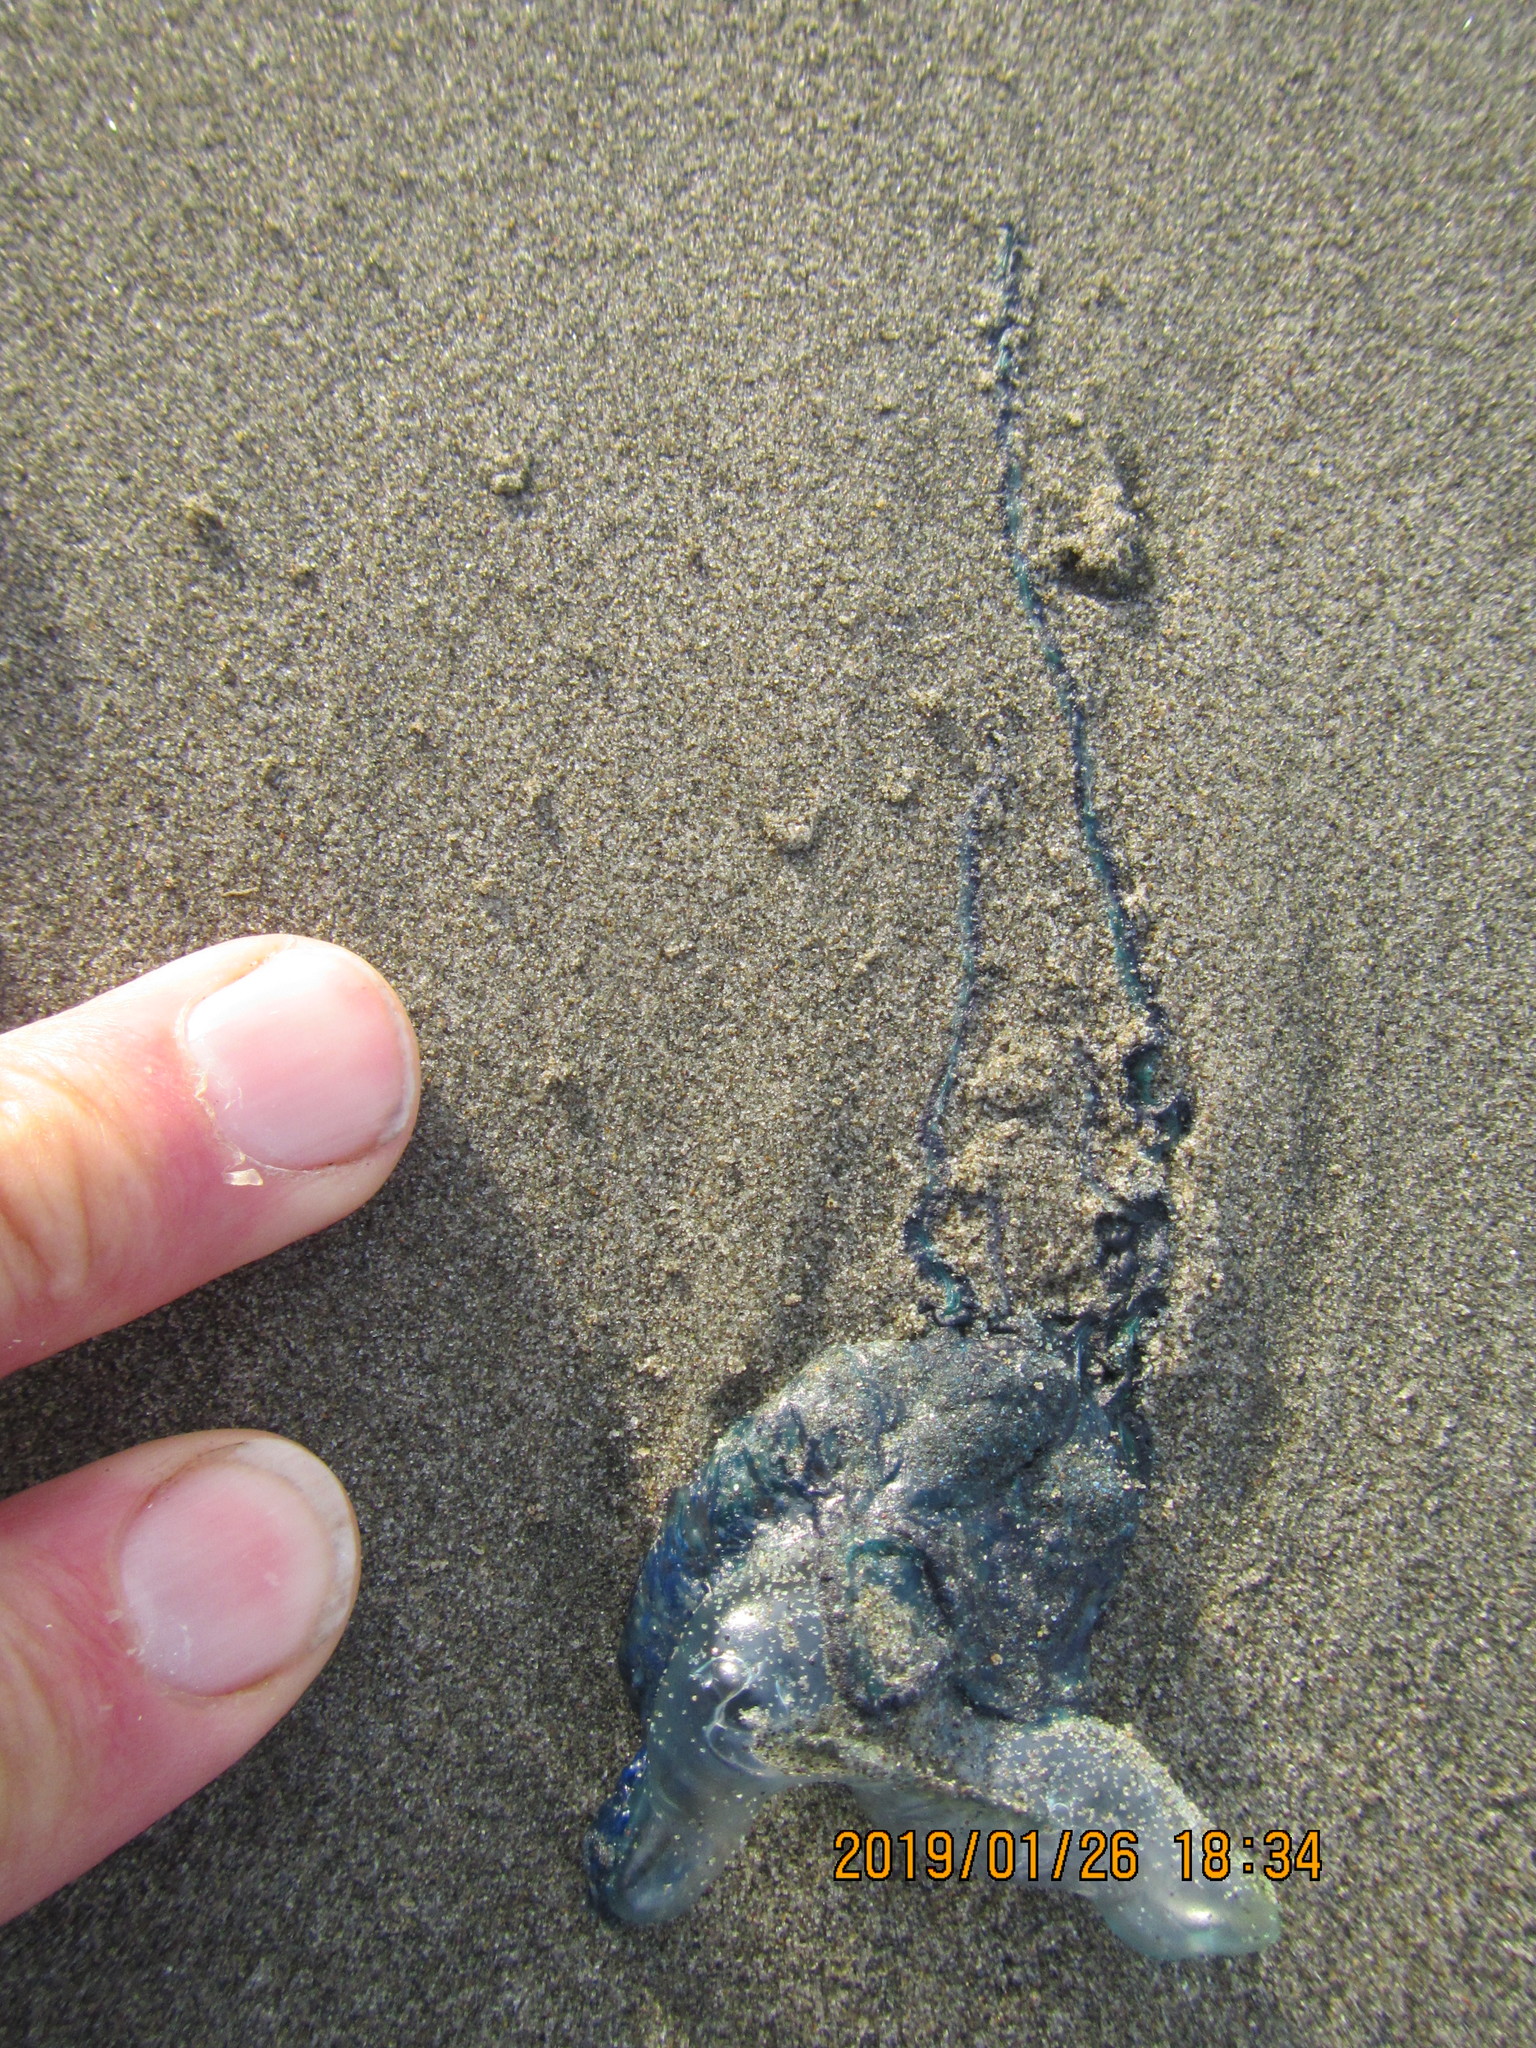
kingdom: Animalia
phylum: Cnidaria
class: Hydrozoa
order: Siphonophorae
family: Physaliidae
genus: Physalia
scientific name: Physalia physalis
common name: Portuguese man-of-war
